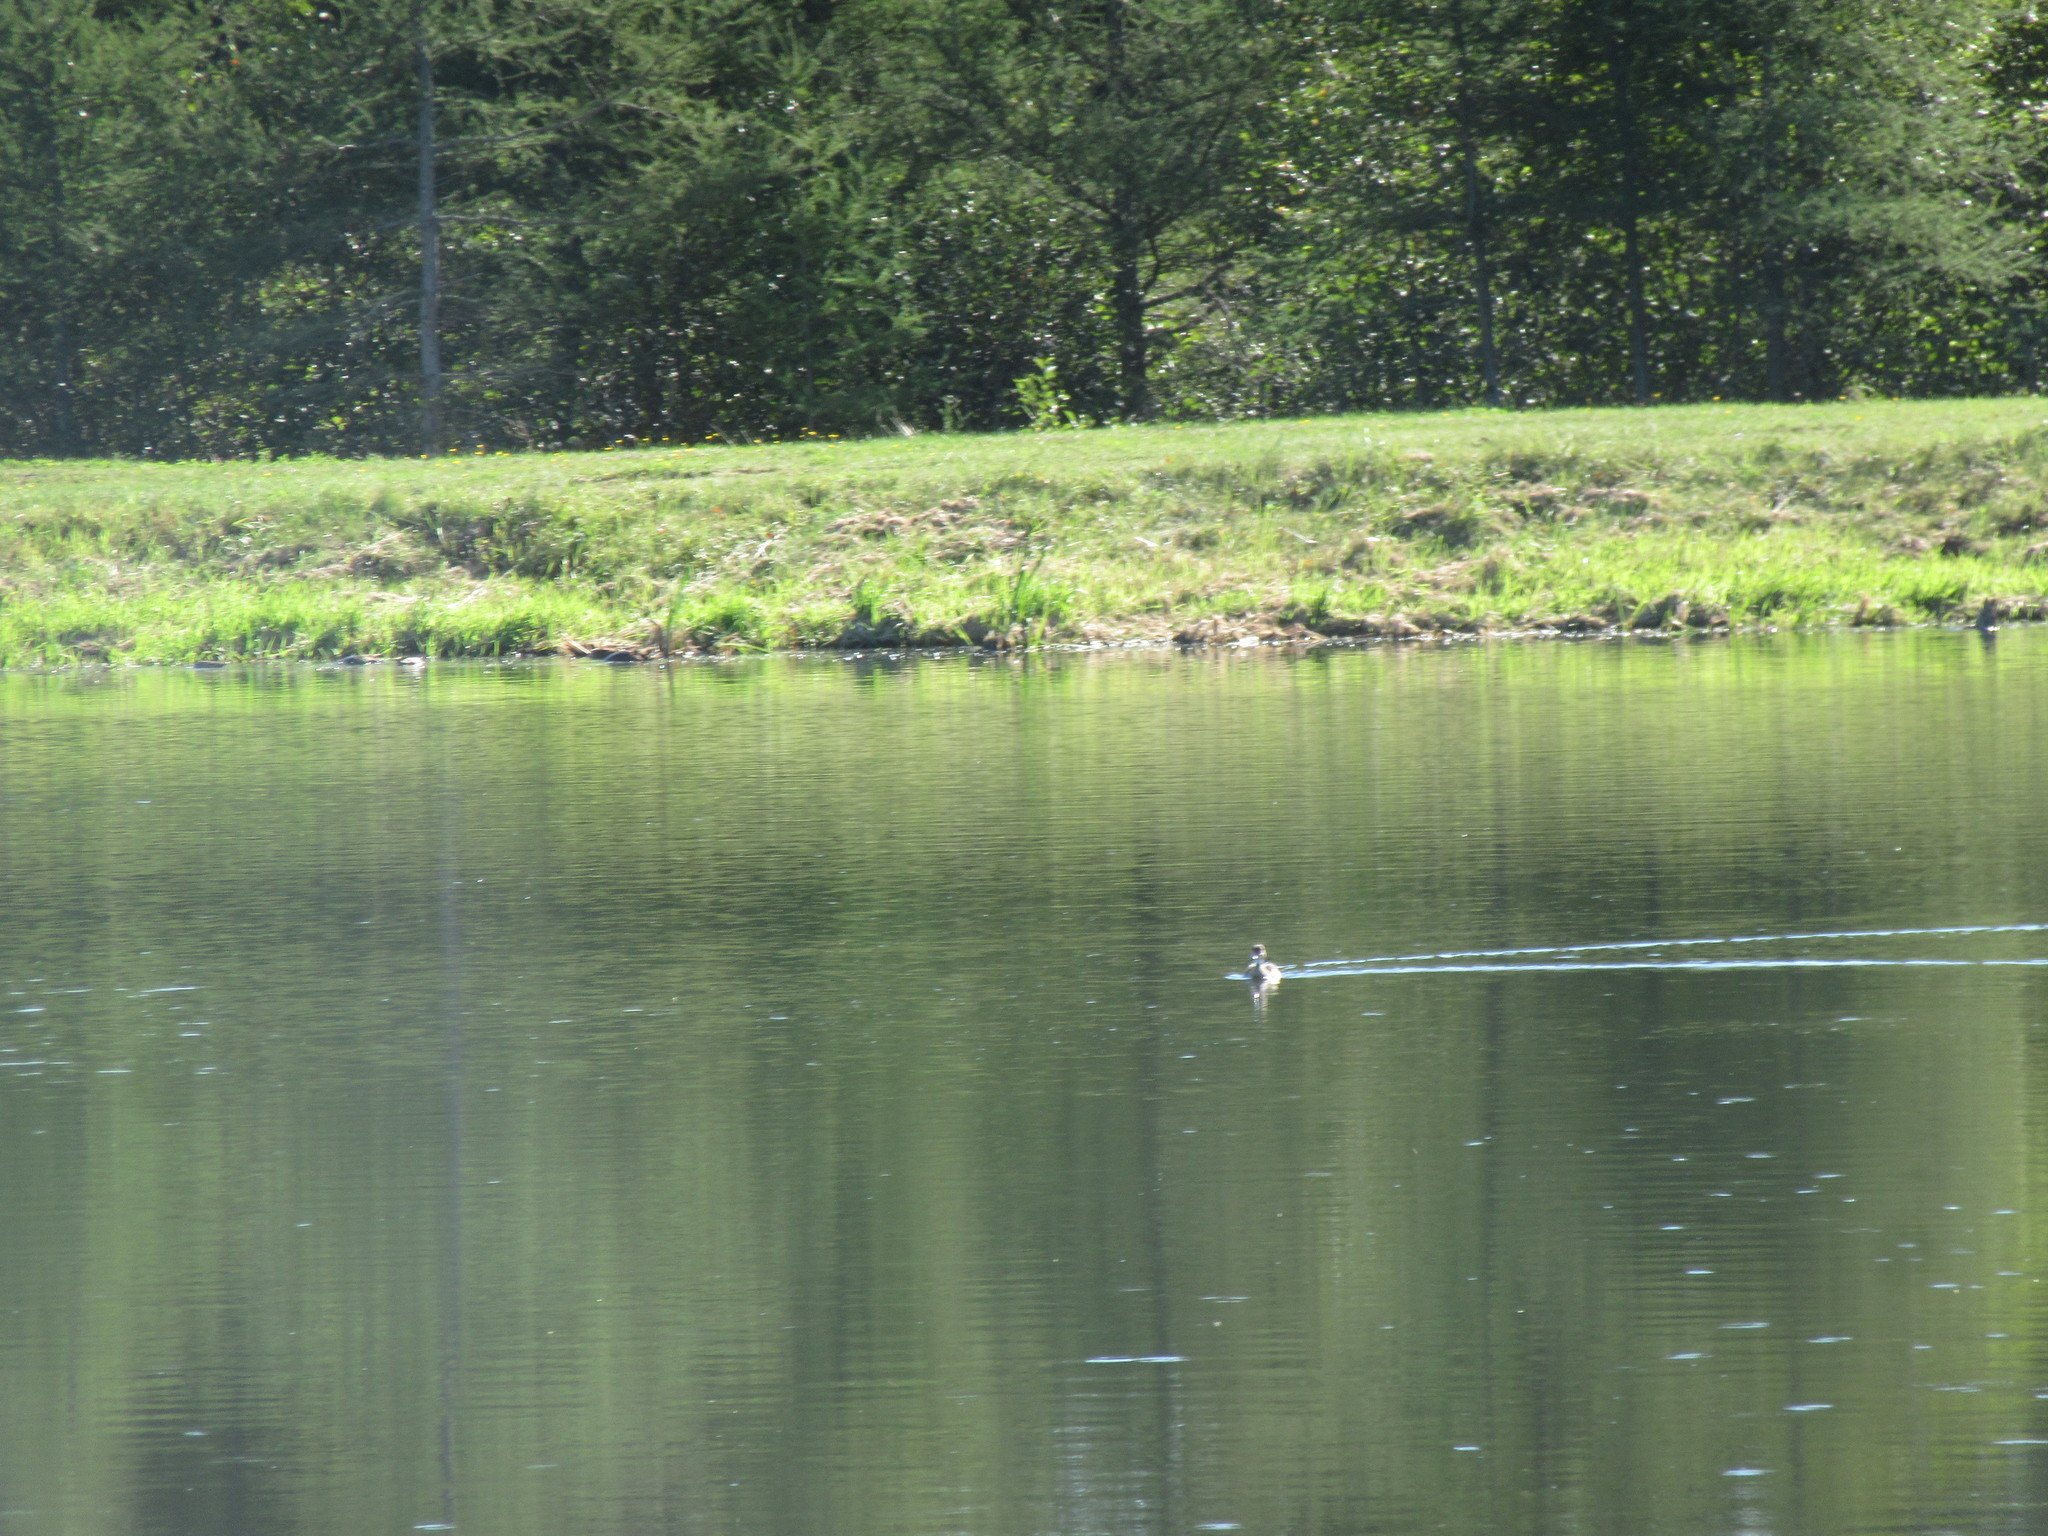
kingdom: Animalia
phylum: Chordata
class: Aves
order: Anseriformes
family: Anatidae
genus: Aix
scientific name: Aix sponsa
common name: Wood duck
